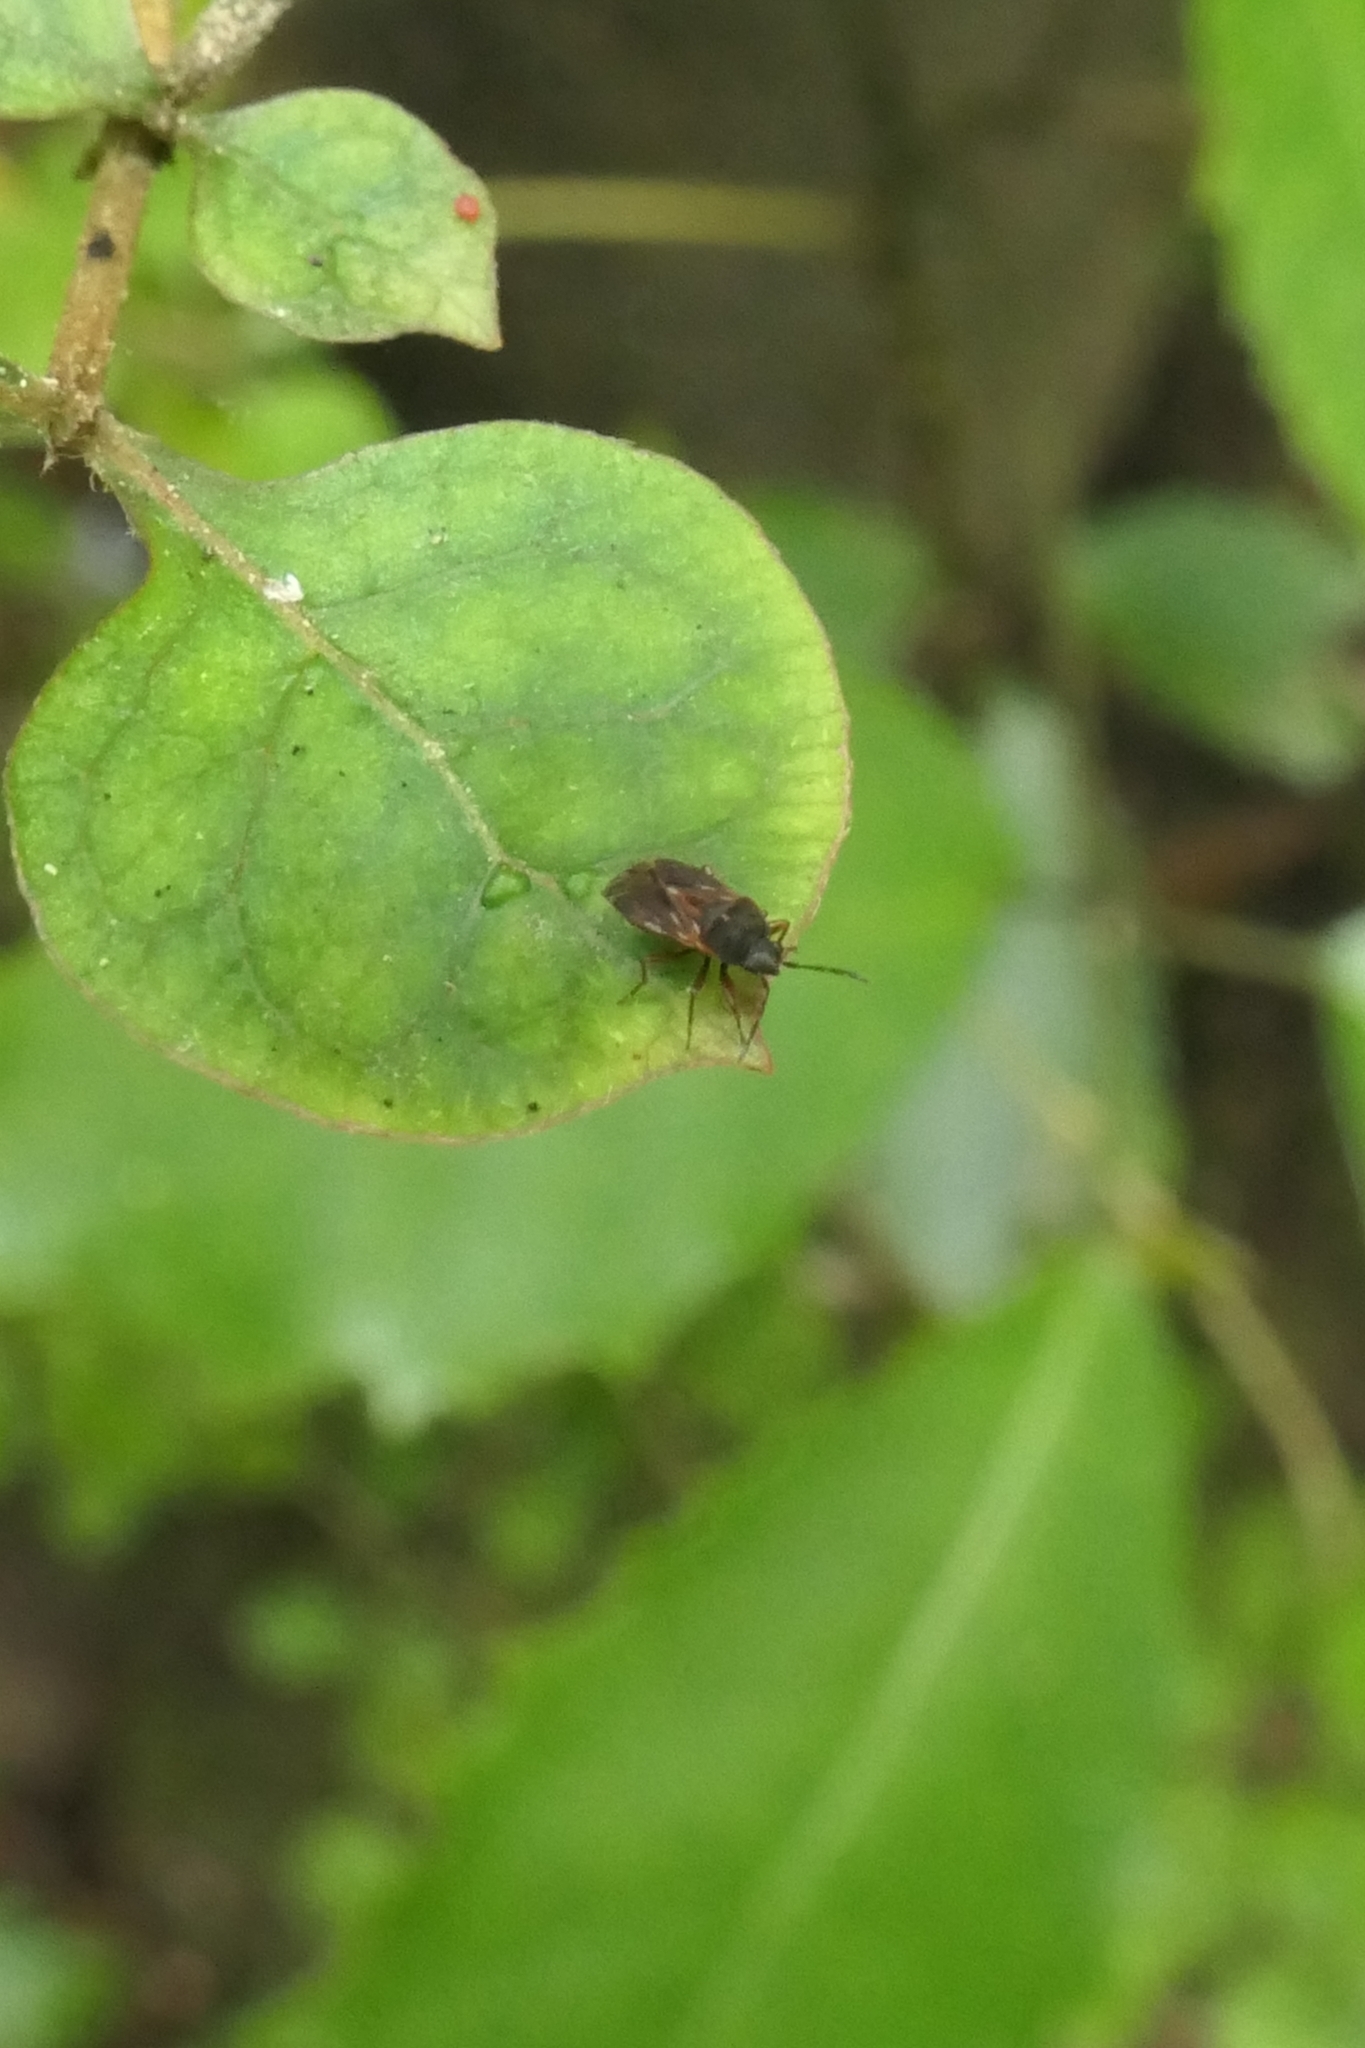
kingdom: Animalia
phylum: Arthropoda
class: Insecta
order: Hemiptera
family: Rhyparochromidae
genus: Targarema
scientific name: Targarema stali
